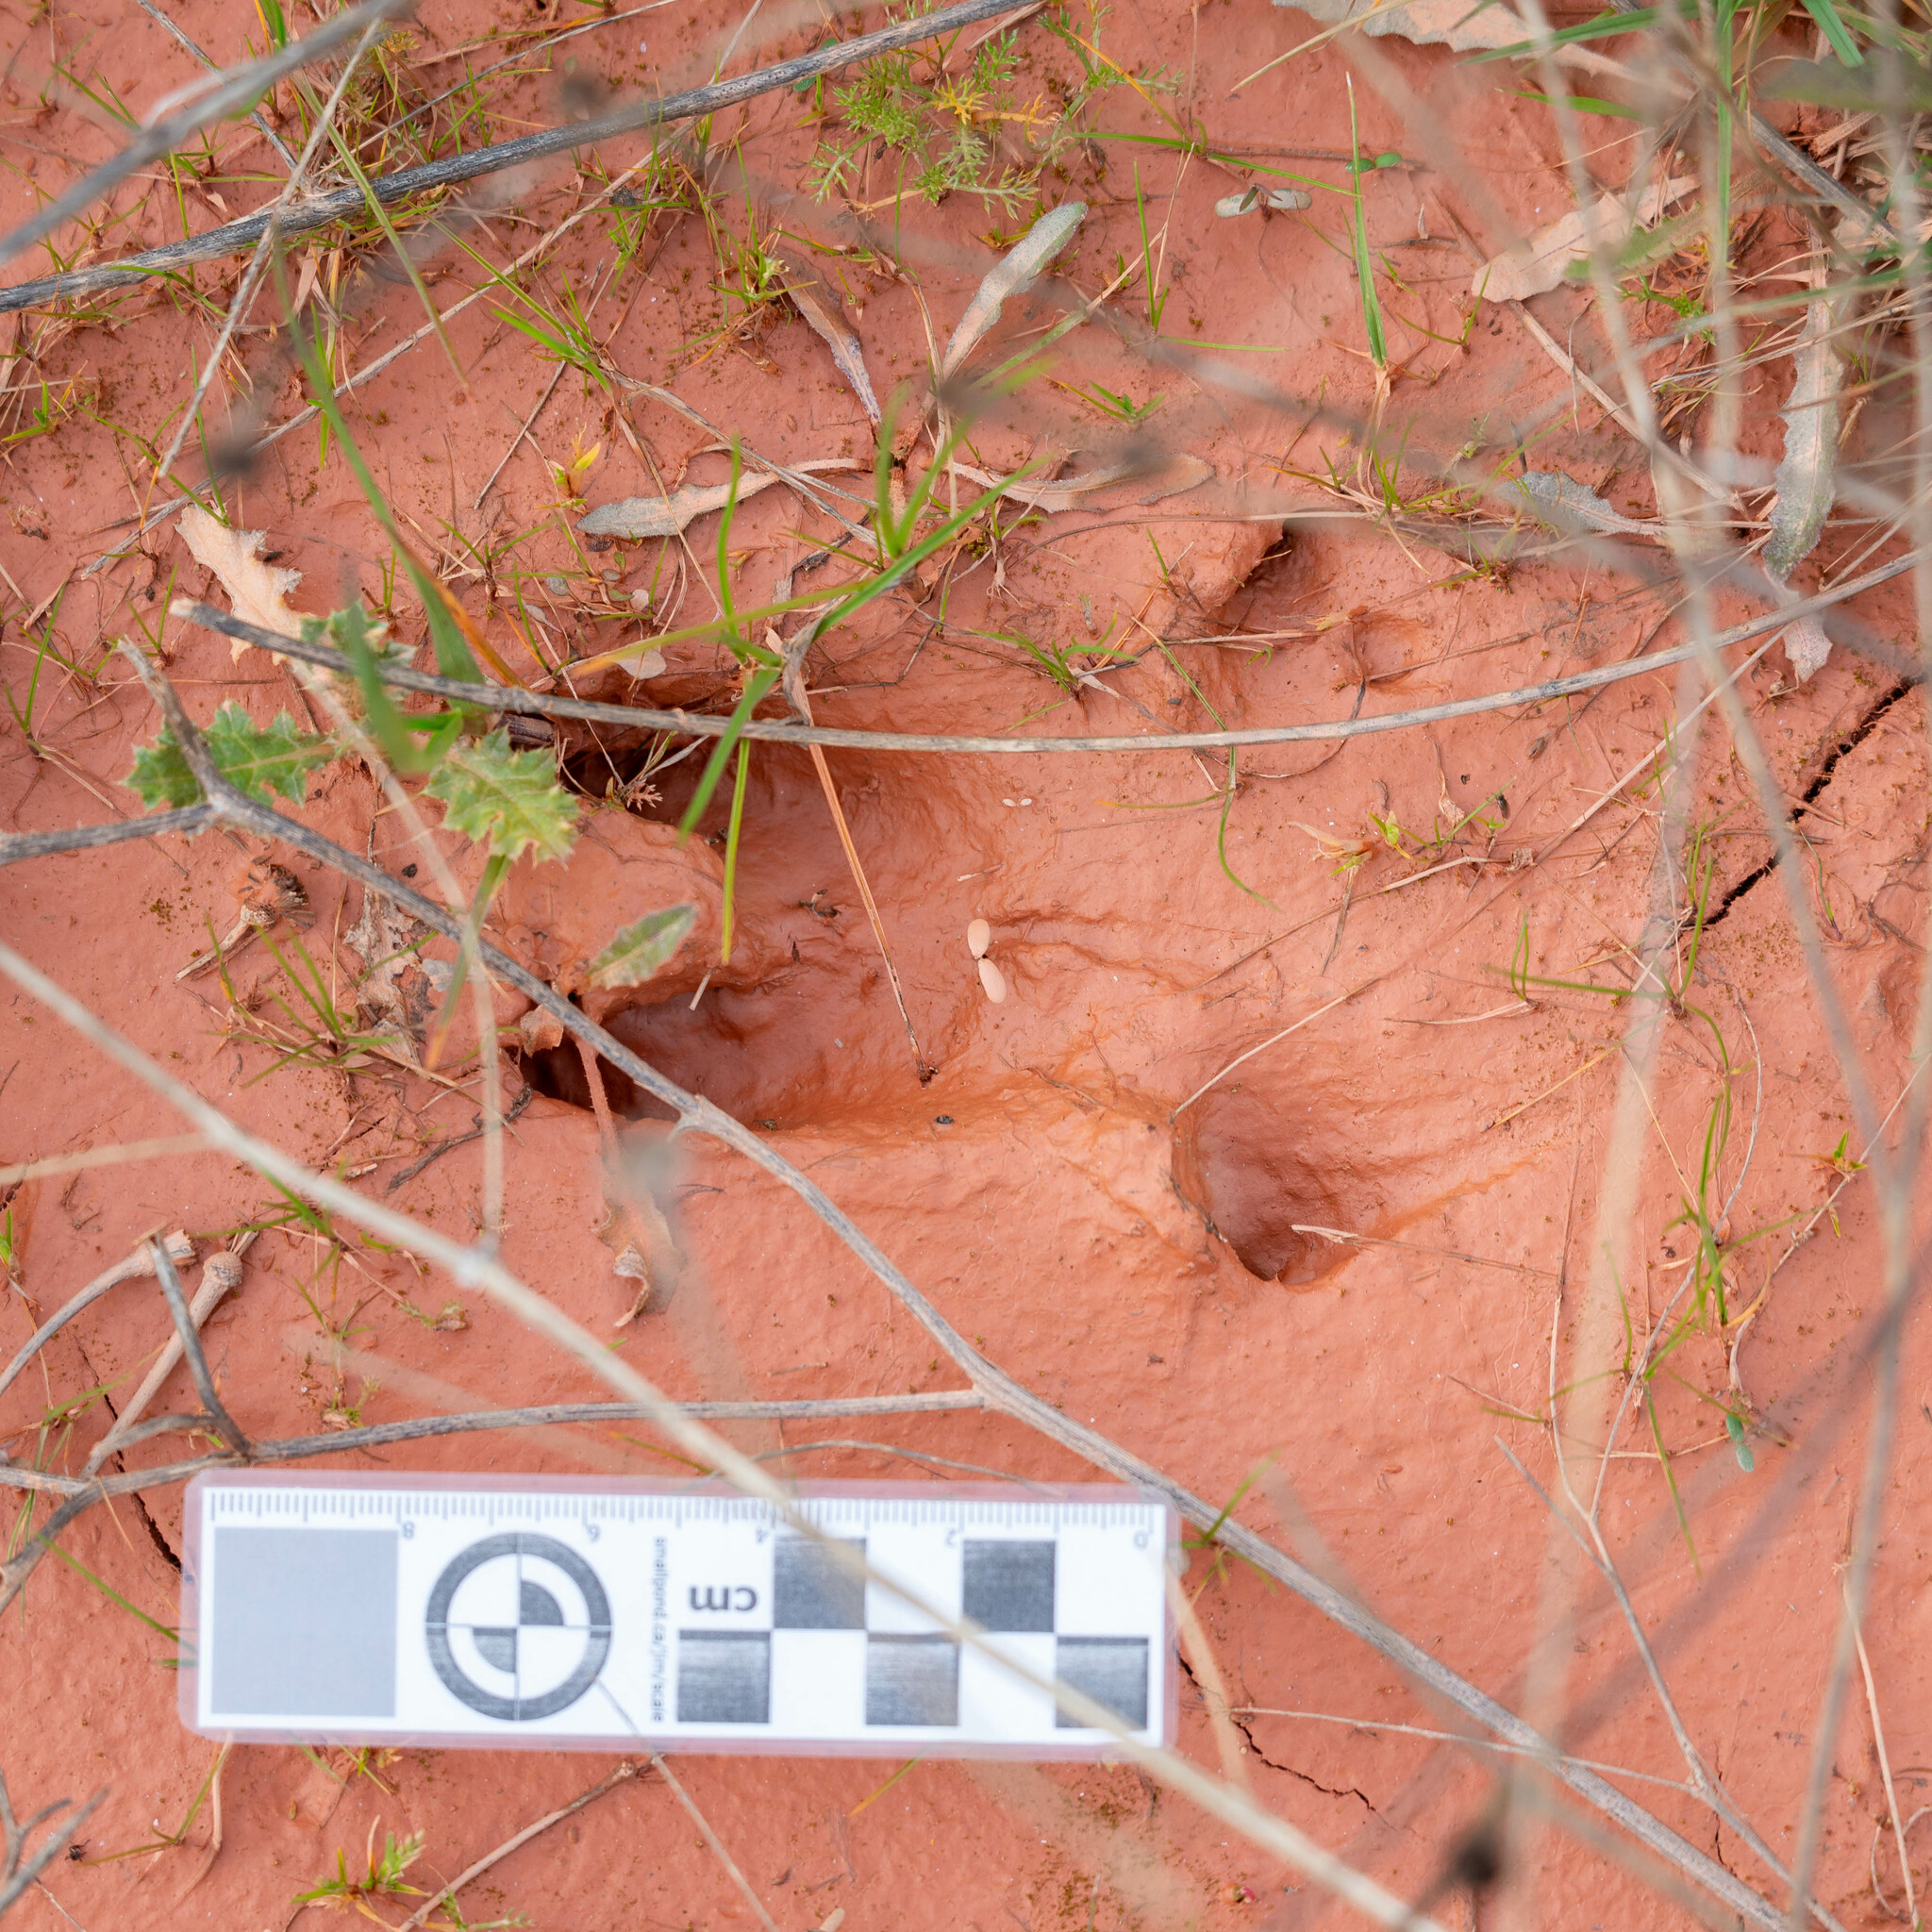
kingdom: Animalia
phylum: Chordata
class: Mammalia
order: Artiodactyla
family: Suidae
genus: Sus
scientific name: Sus scrofa
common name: Wild boar
